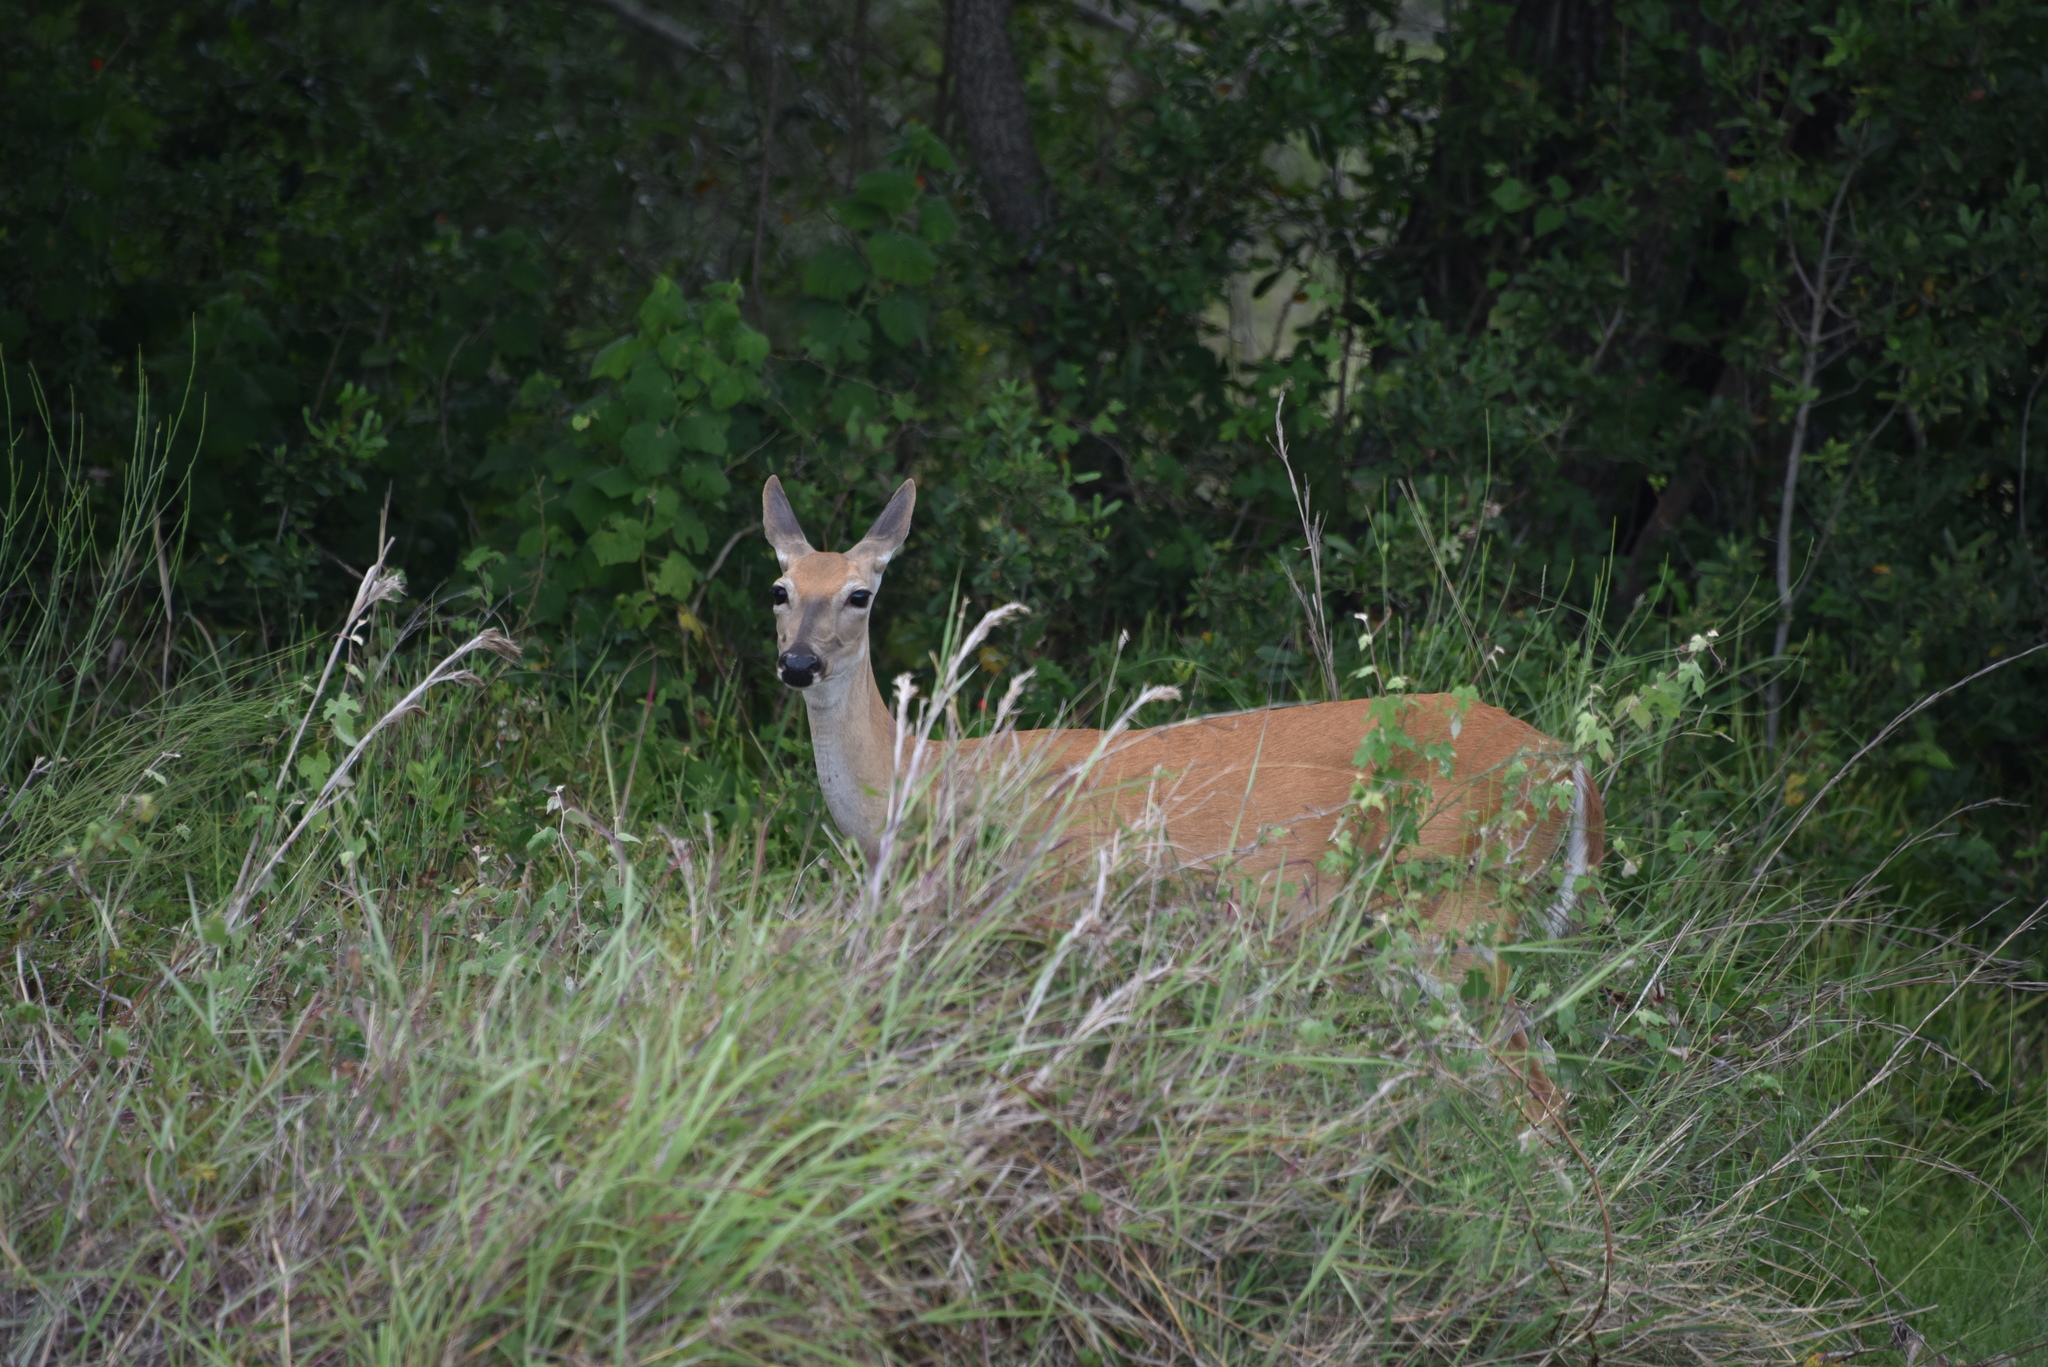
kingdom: Animalia
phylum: Chordata
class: Mammalia
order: Artiodactyla
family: Cervidae
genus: Odocoileus
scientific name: Odocoileus virginianus
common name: White-tailed deer
